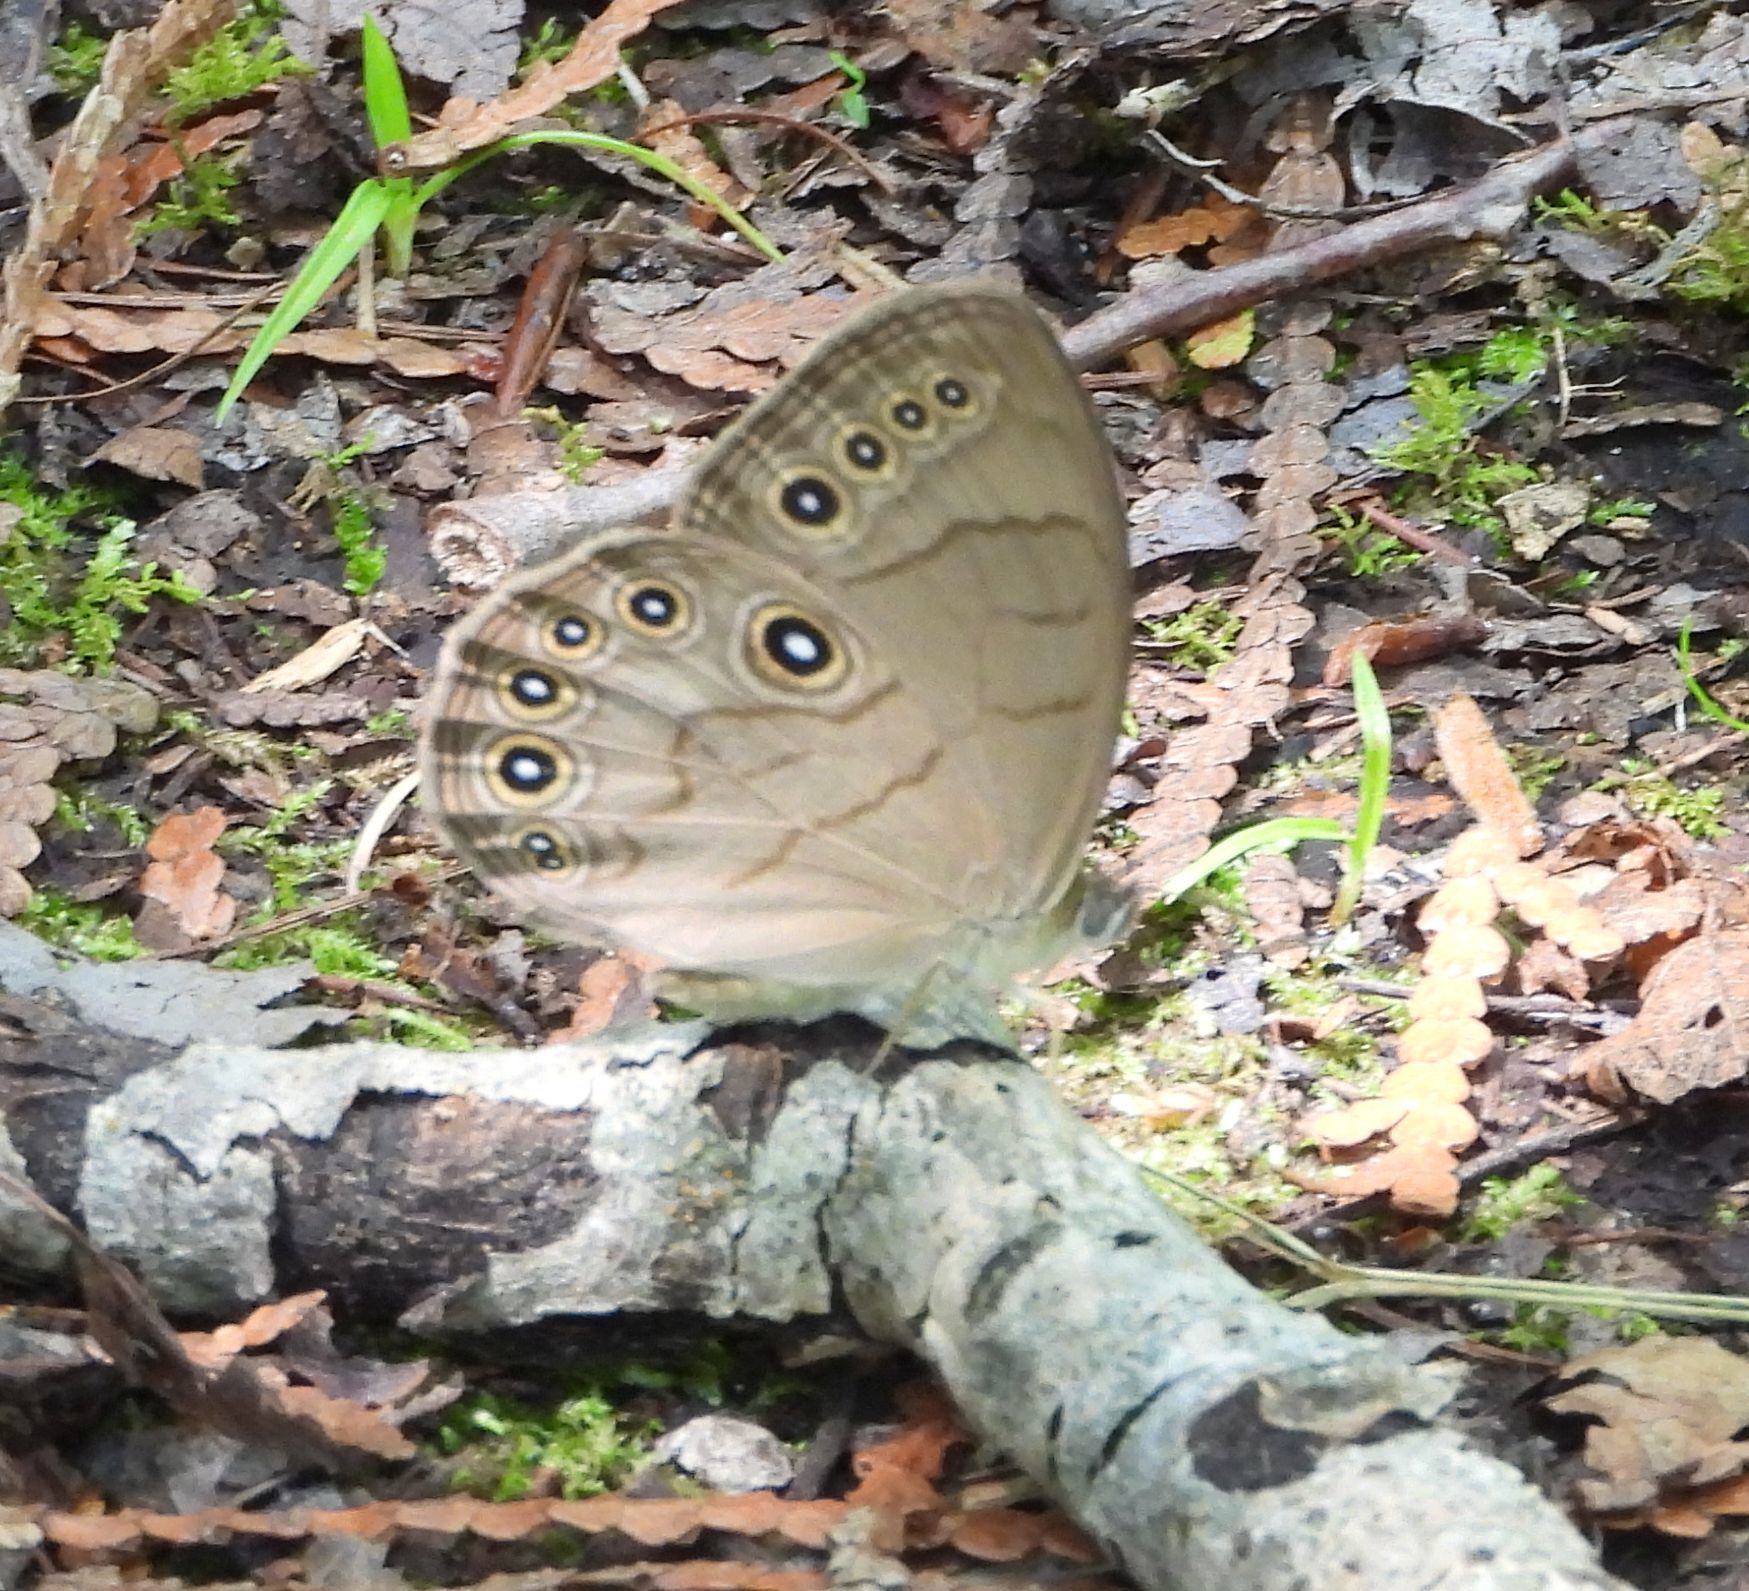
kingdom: Animalia
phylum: Arthropoda
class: Insecta
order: Lepidoptera
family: Nymphalidae
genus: Lethe
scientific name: Lethe eurydice
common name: Eyed brown
